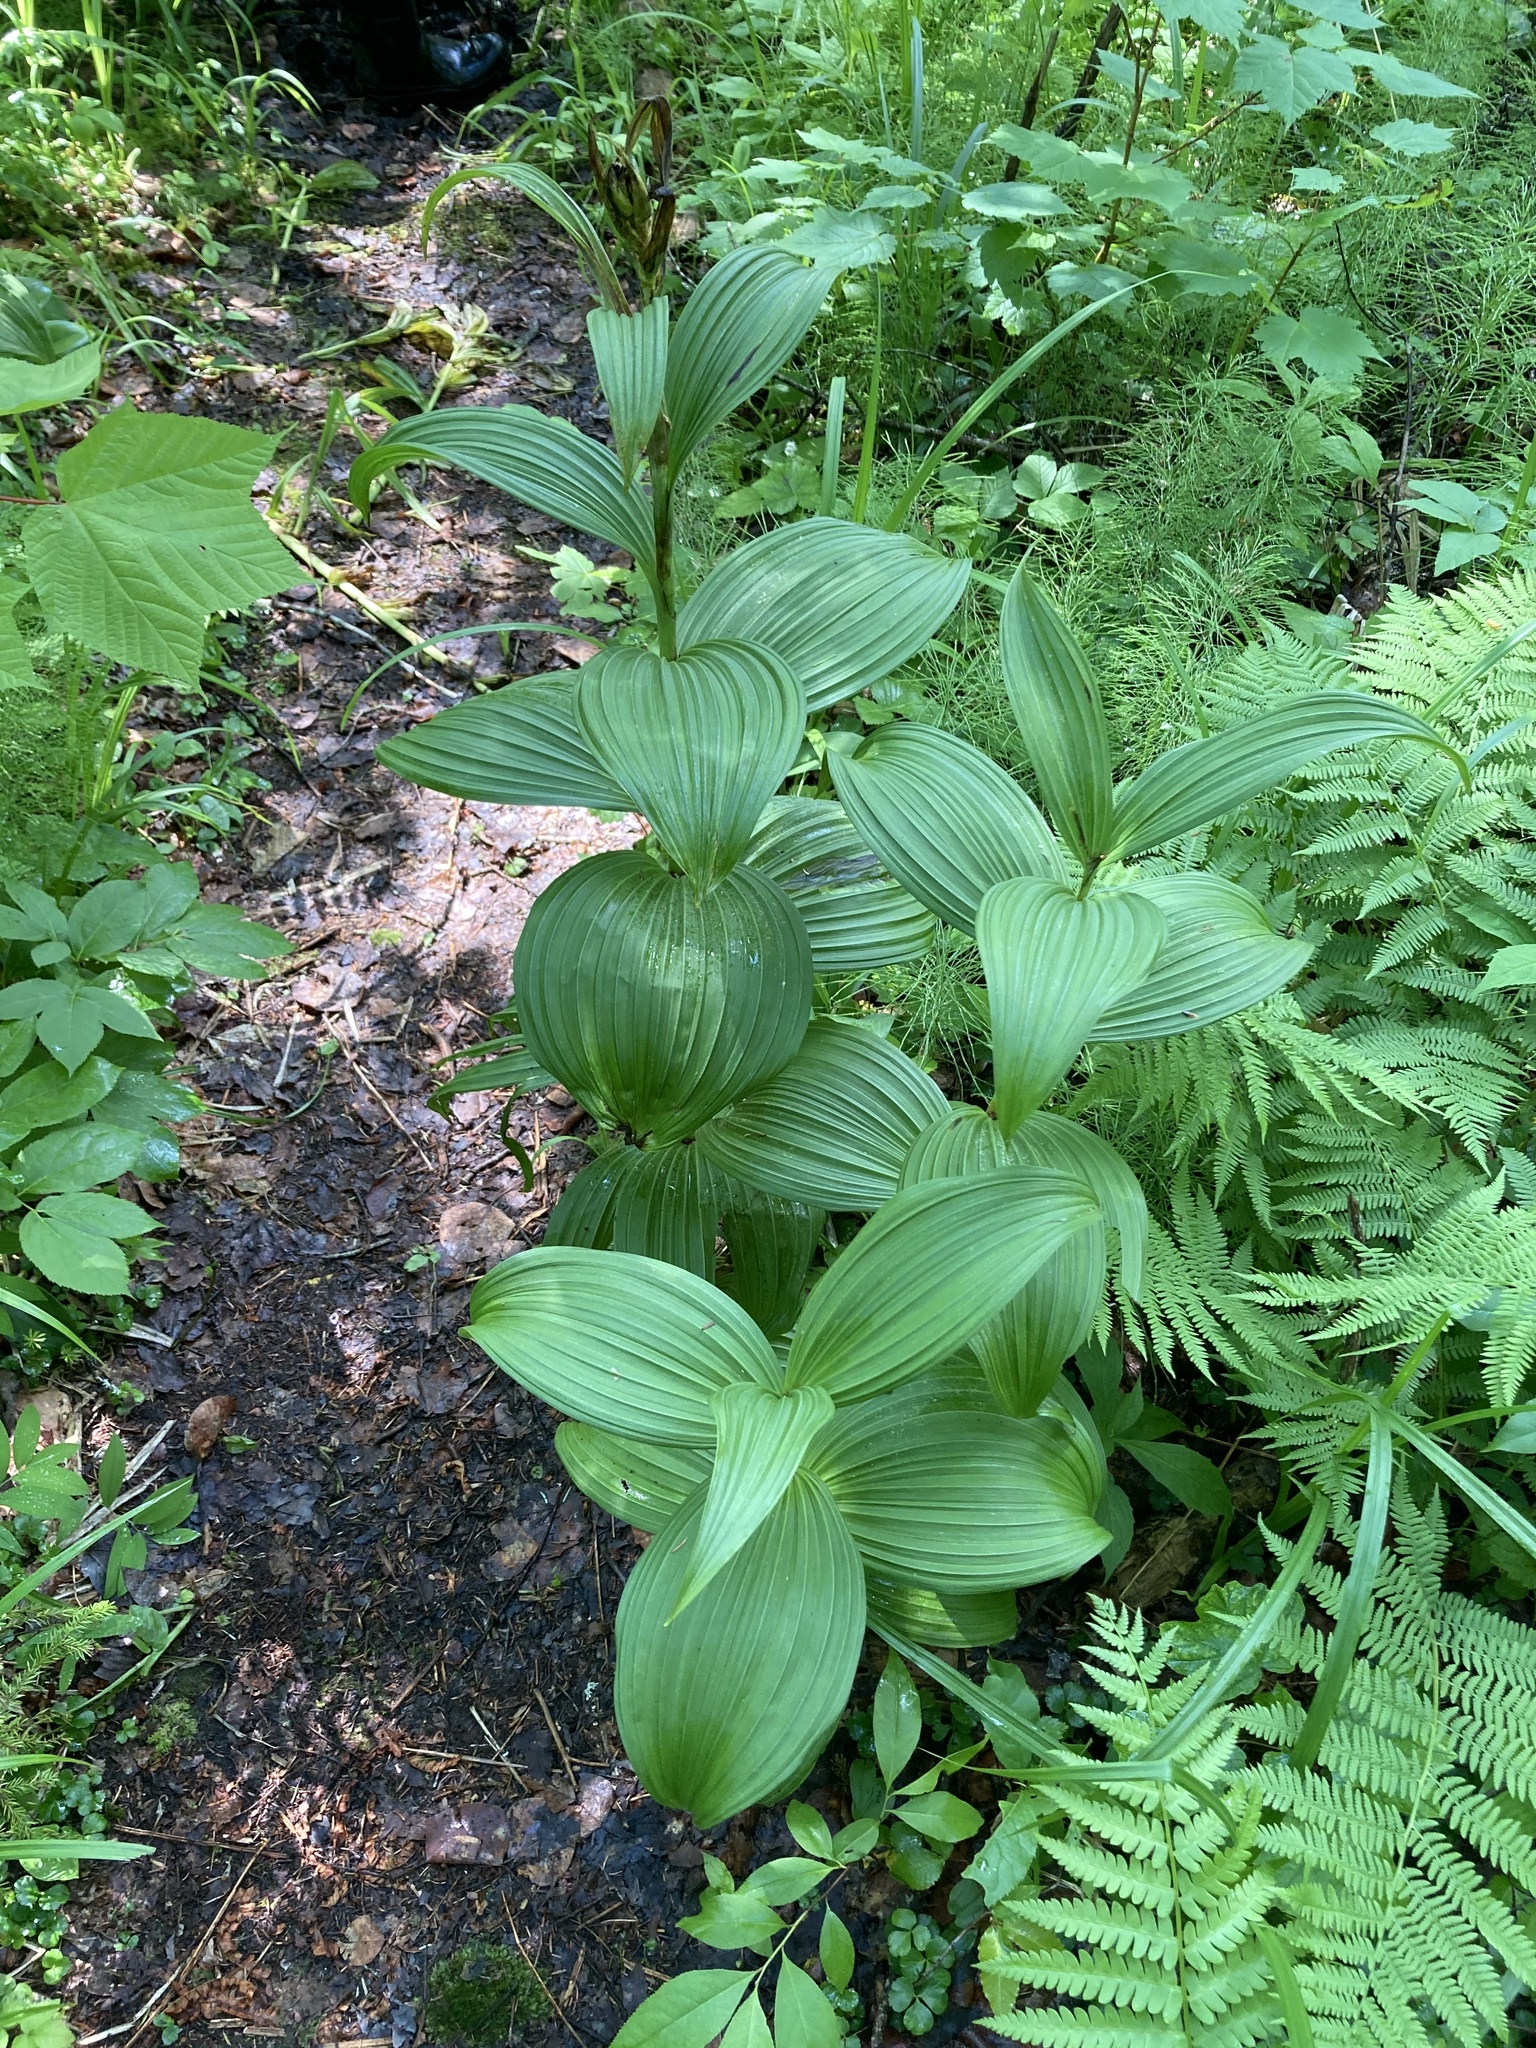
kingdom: Plantae
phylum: Tracheophyta
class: Liliopsida
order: Liliales
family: Melanthiaceae
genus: Veratrum
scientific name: Veratrum viride
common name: American false hellebore
